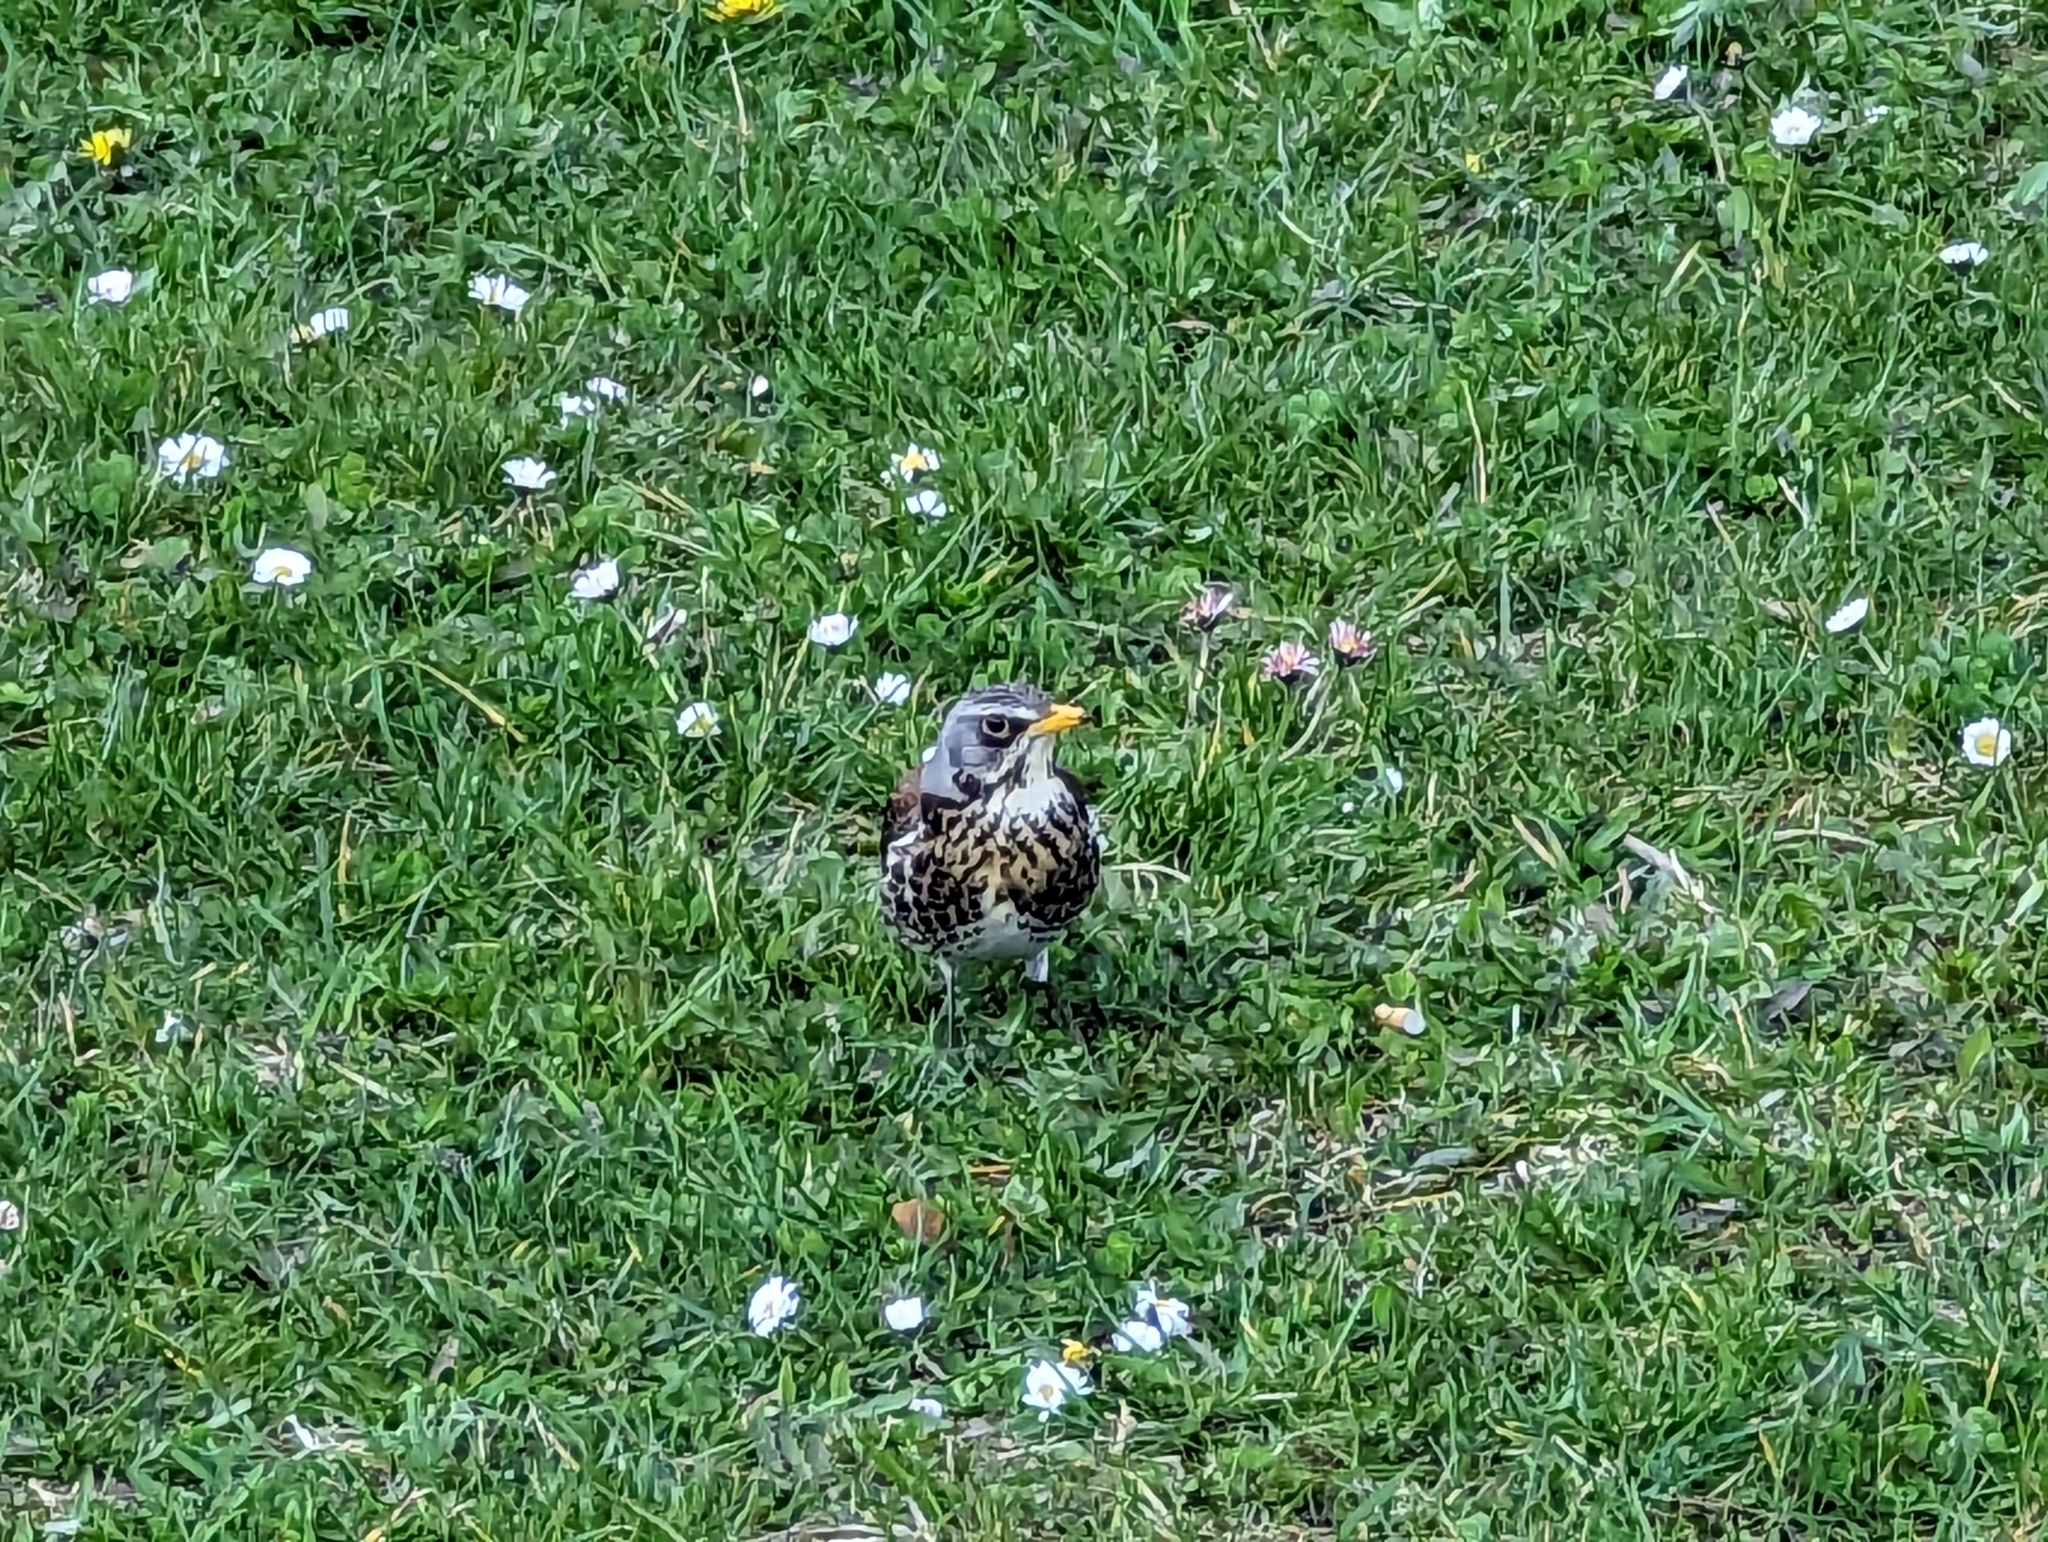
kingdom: Animalia
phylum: Chordata
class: Aves
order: Passeriformes
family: Turdidae
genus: Turdus
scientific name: Turdus pilaris
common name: Fieldfare
